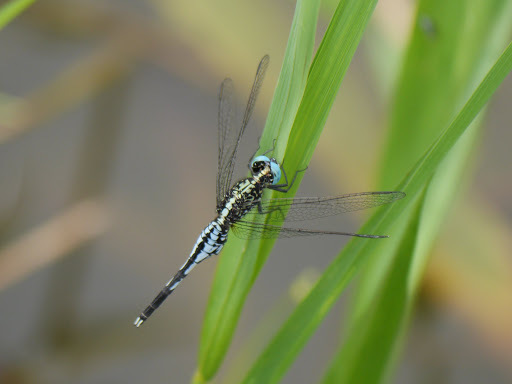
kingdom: Animalia
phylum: Arthropoda
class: Insecta
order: Odonata
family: Libellulidae
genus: Acisoma
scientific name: Acisoma inflatum
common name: Stout pintail
